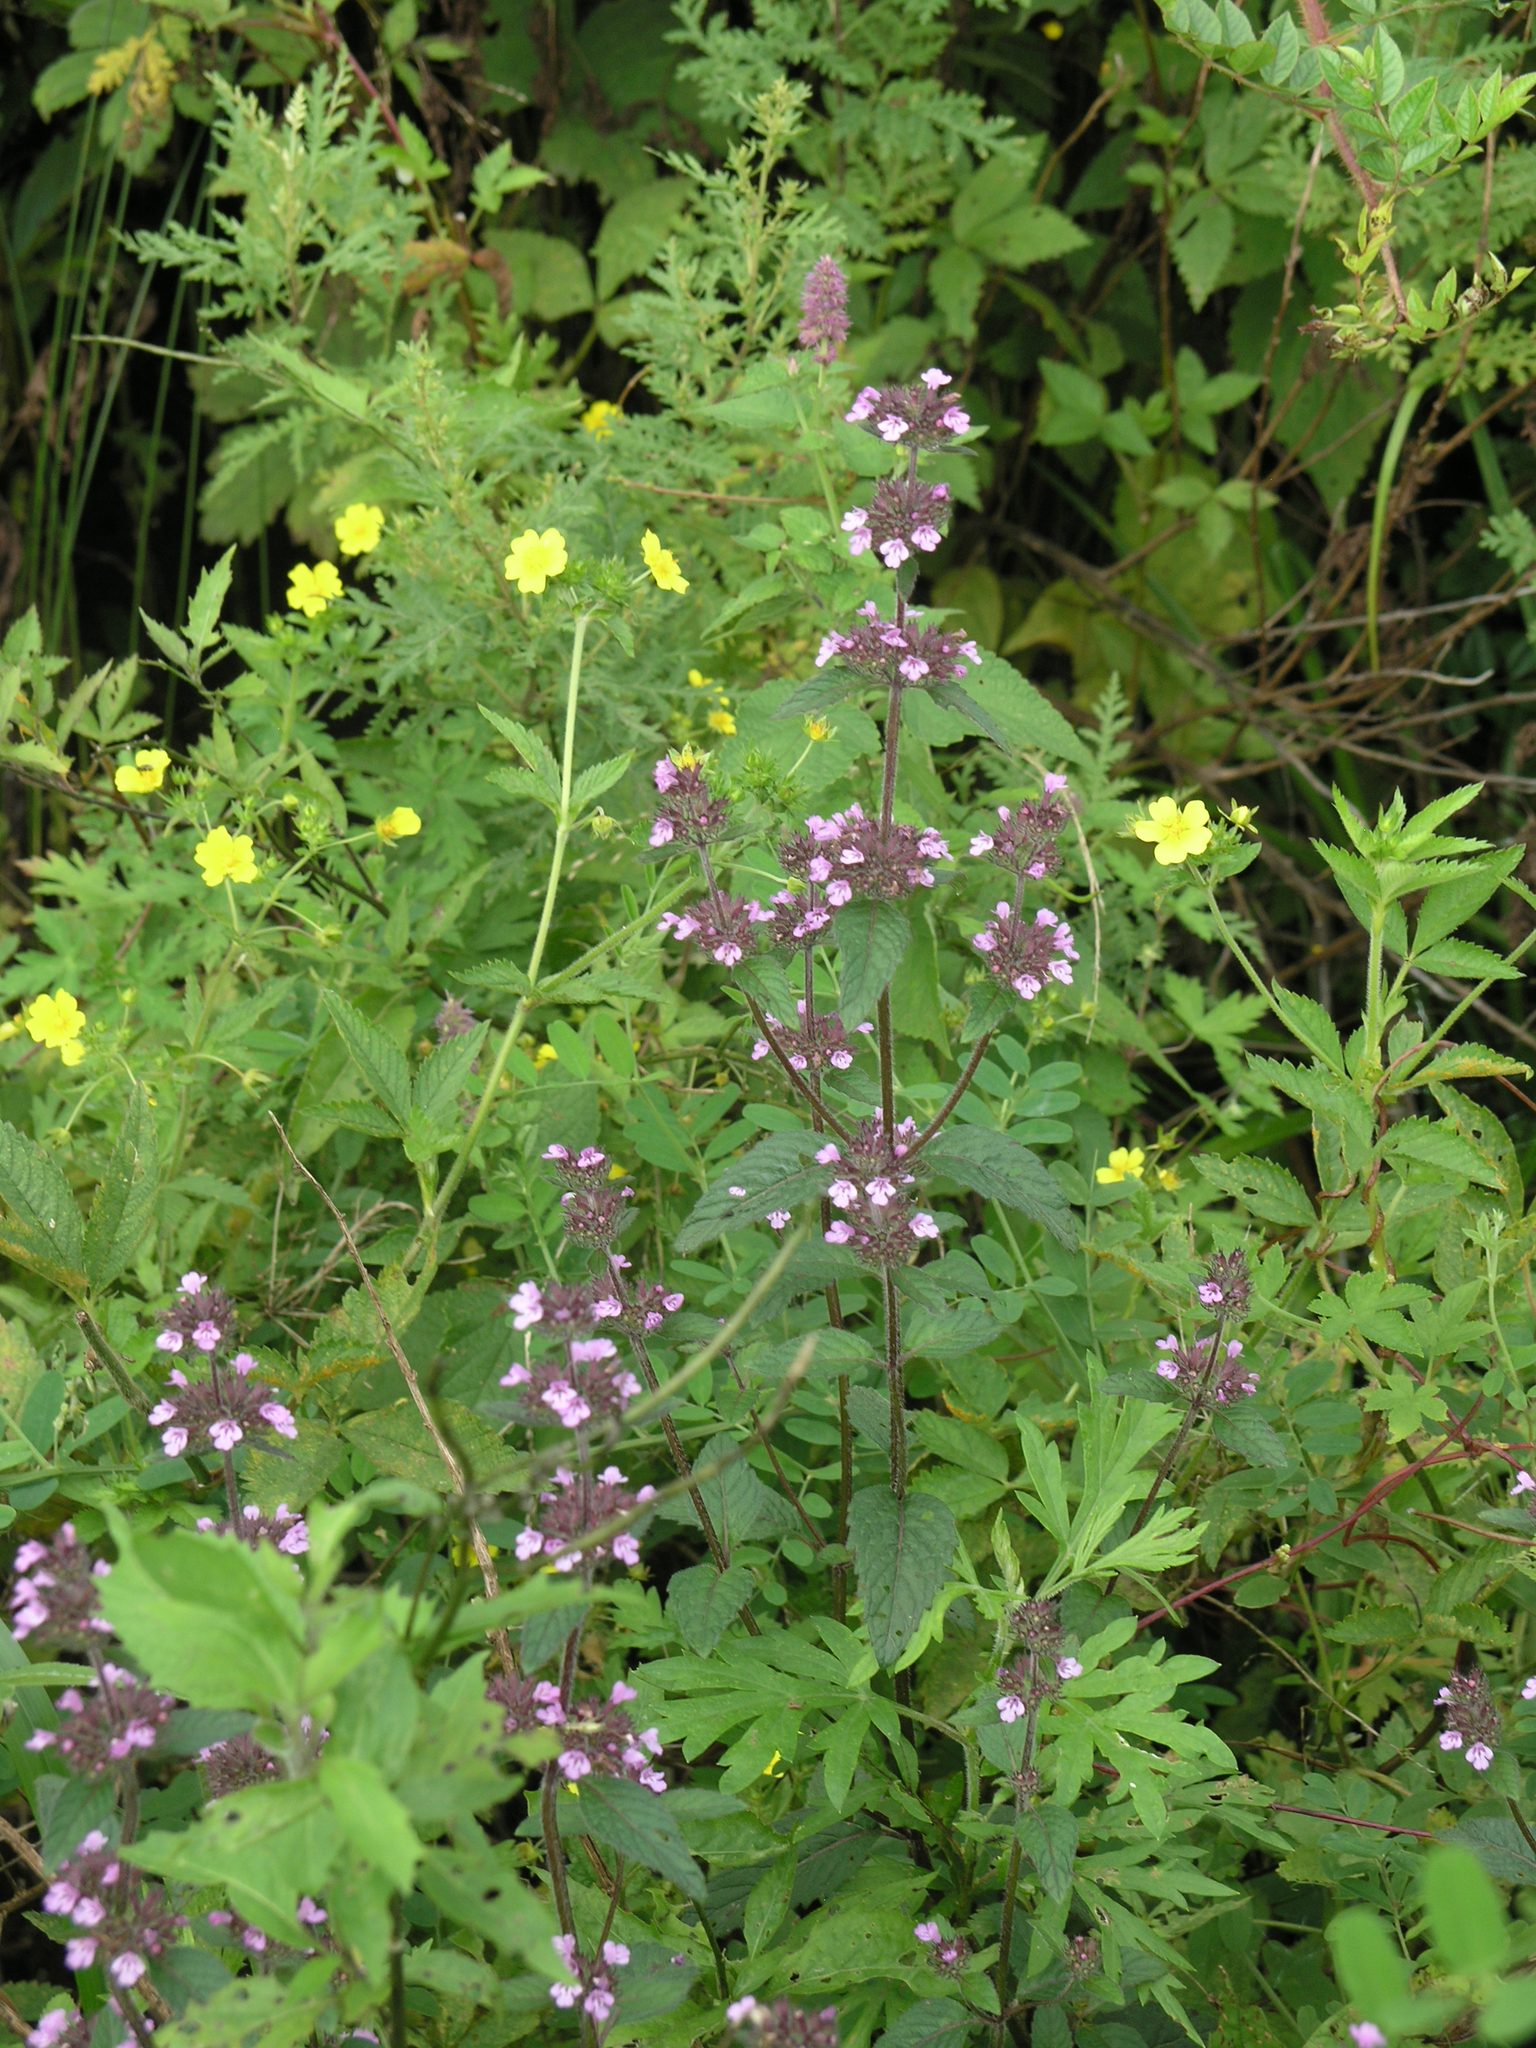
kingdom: Plantae
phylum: Tracheophyta
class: Magnoliopsida
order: Lamiales
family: Lamiaceae
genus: Clinopodium
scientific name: Clinopodium chinense
